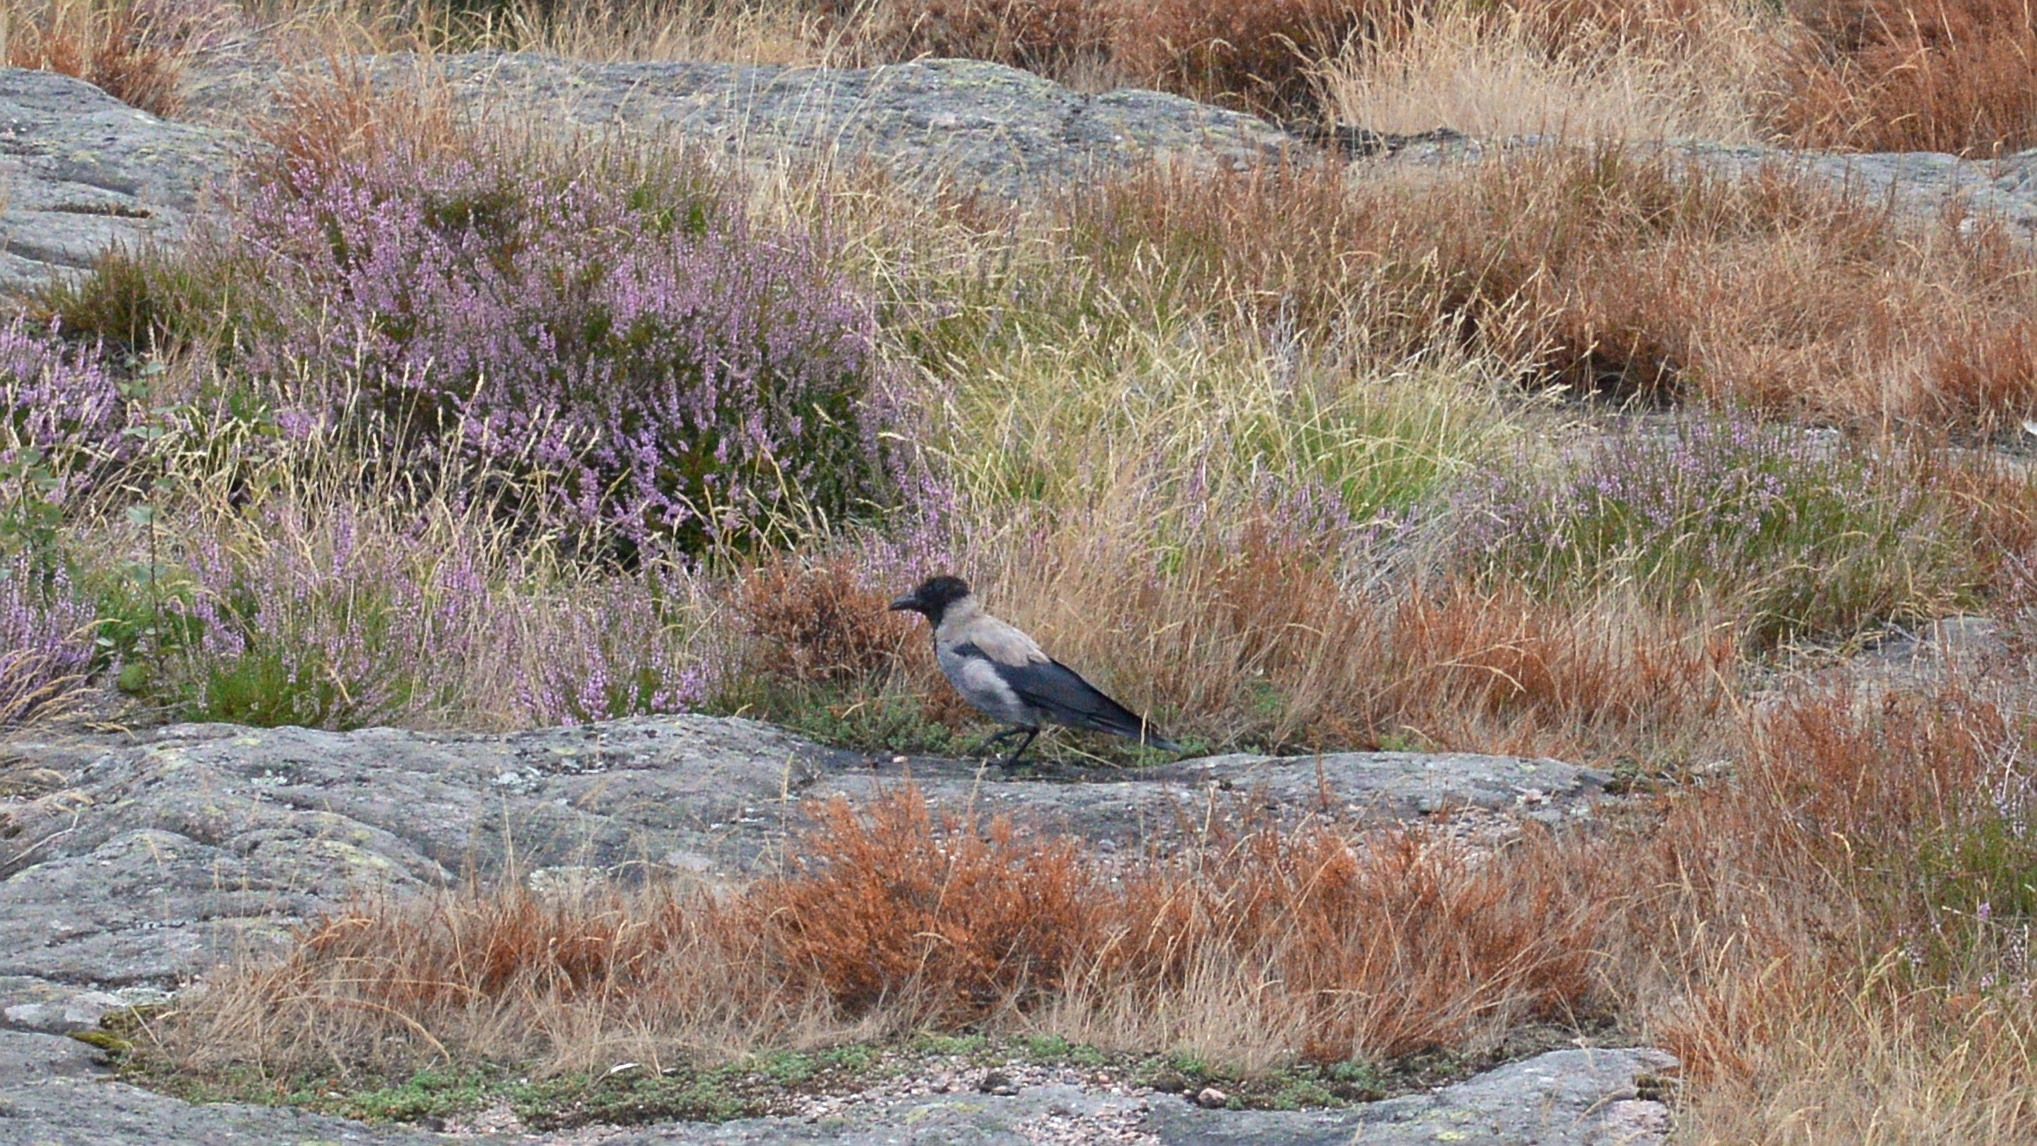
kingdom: Animalia
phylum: Chordata
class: Aves
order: Passeriformes
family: Corvidae
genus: Corvus
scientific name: Corvus cornix
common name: Hooded crow
